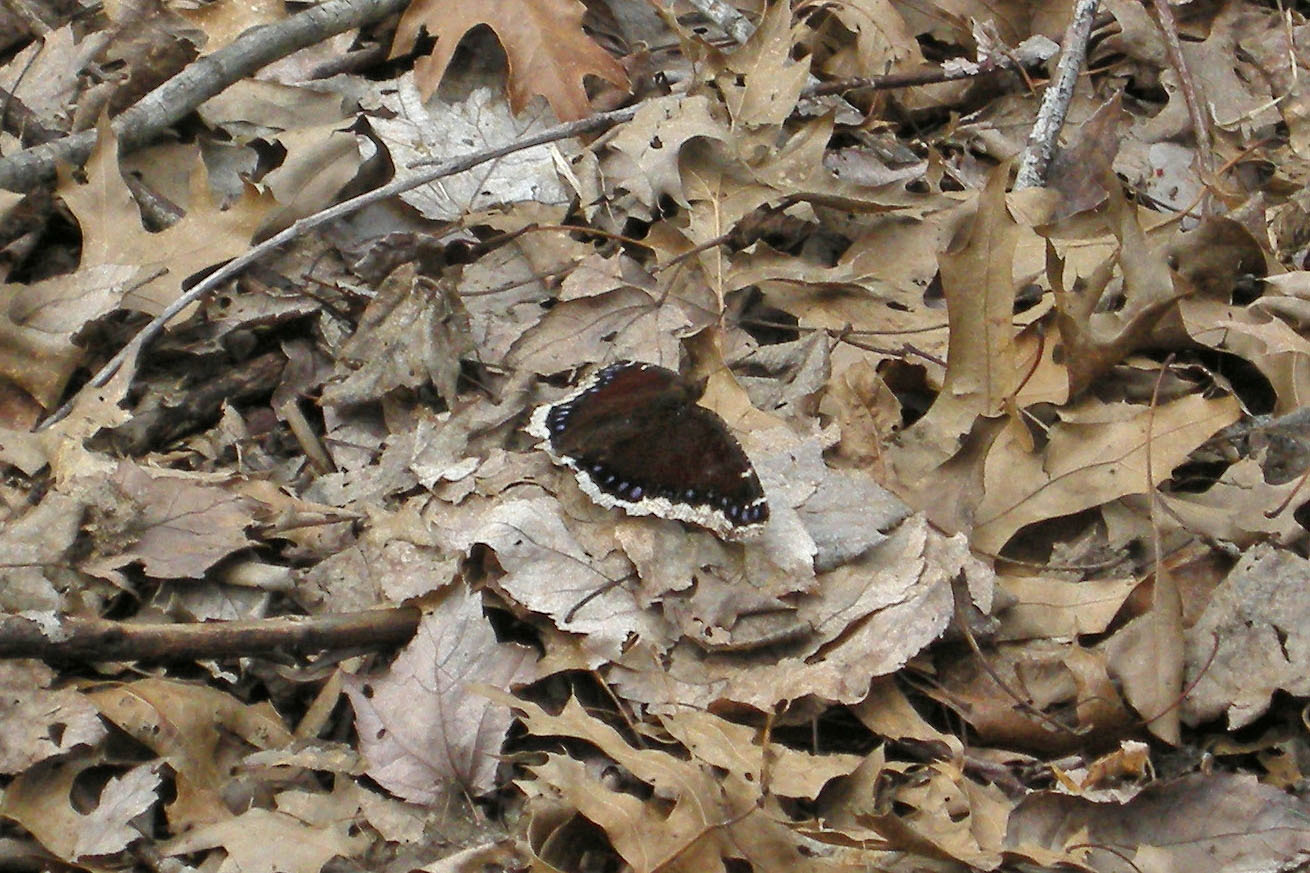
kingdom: Animalia
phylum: Arthropoda
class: Insecta
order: Lepidoptera
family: Nymphalidae
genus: Nymphalis
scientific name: Nymphalis antiopa
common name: Camberwell beauty
